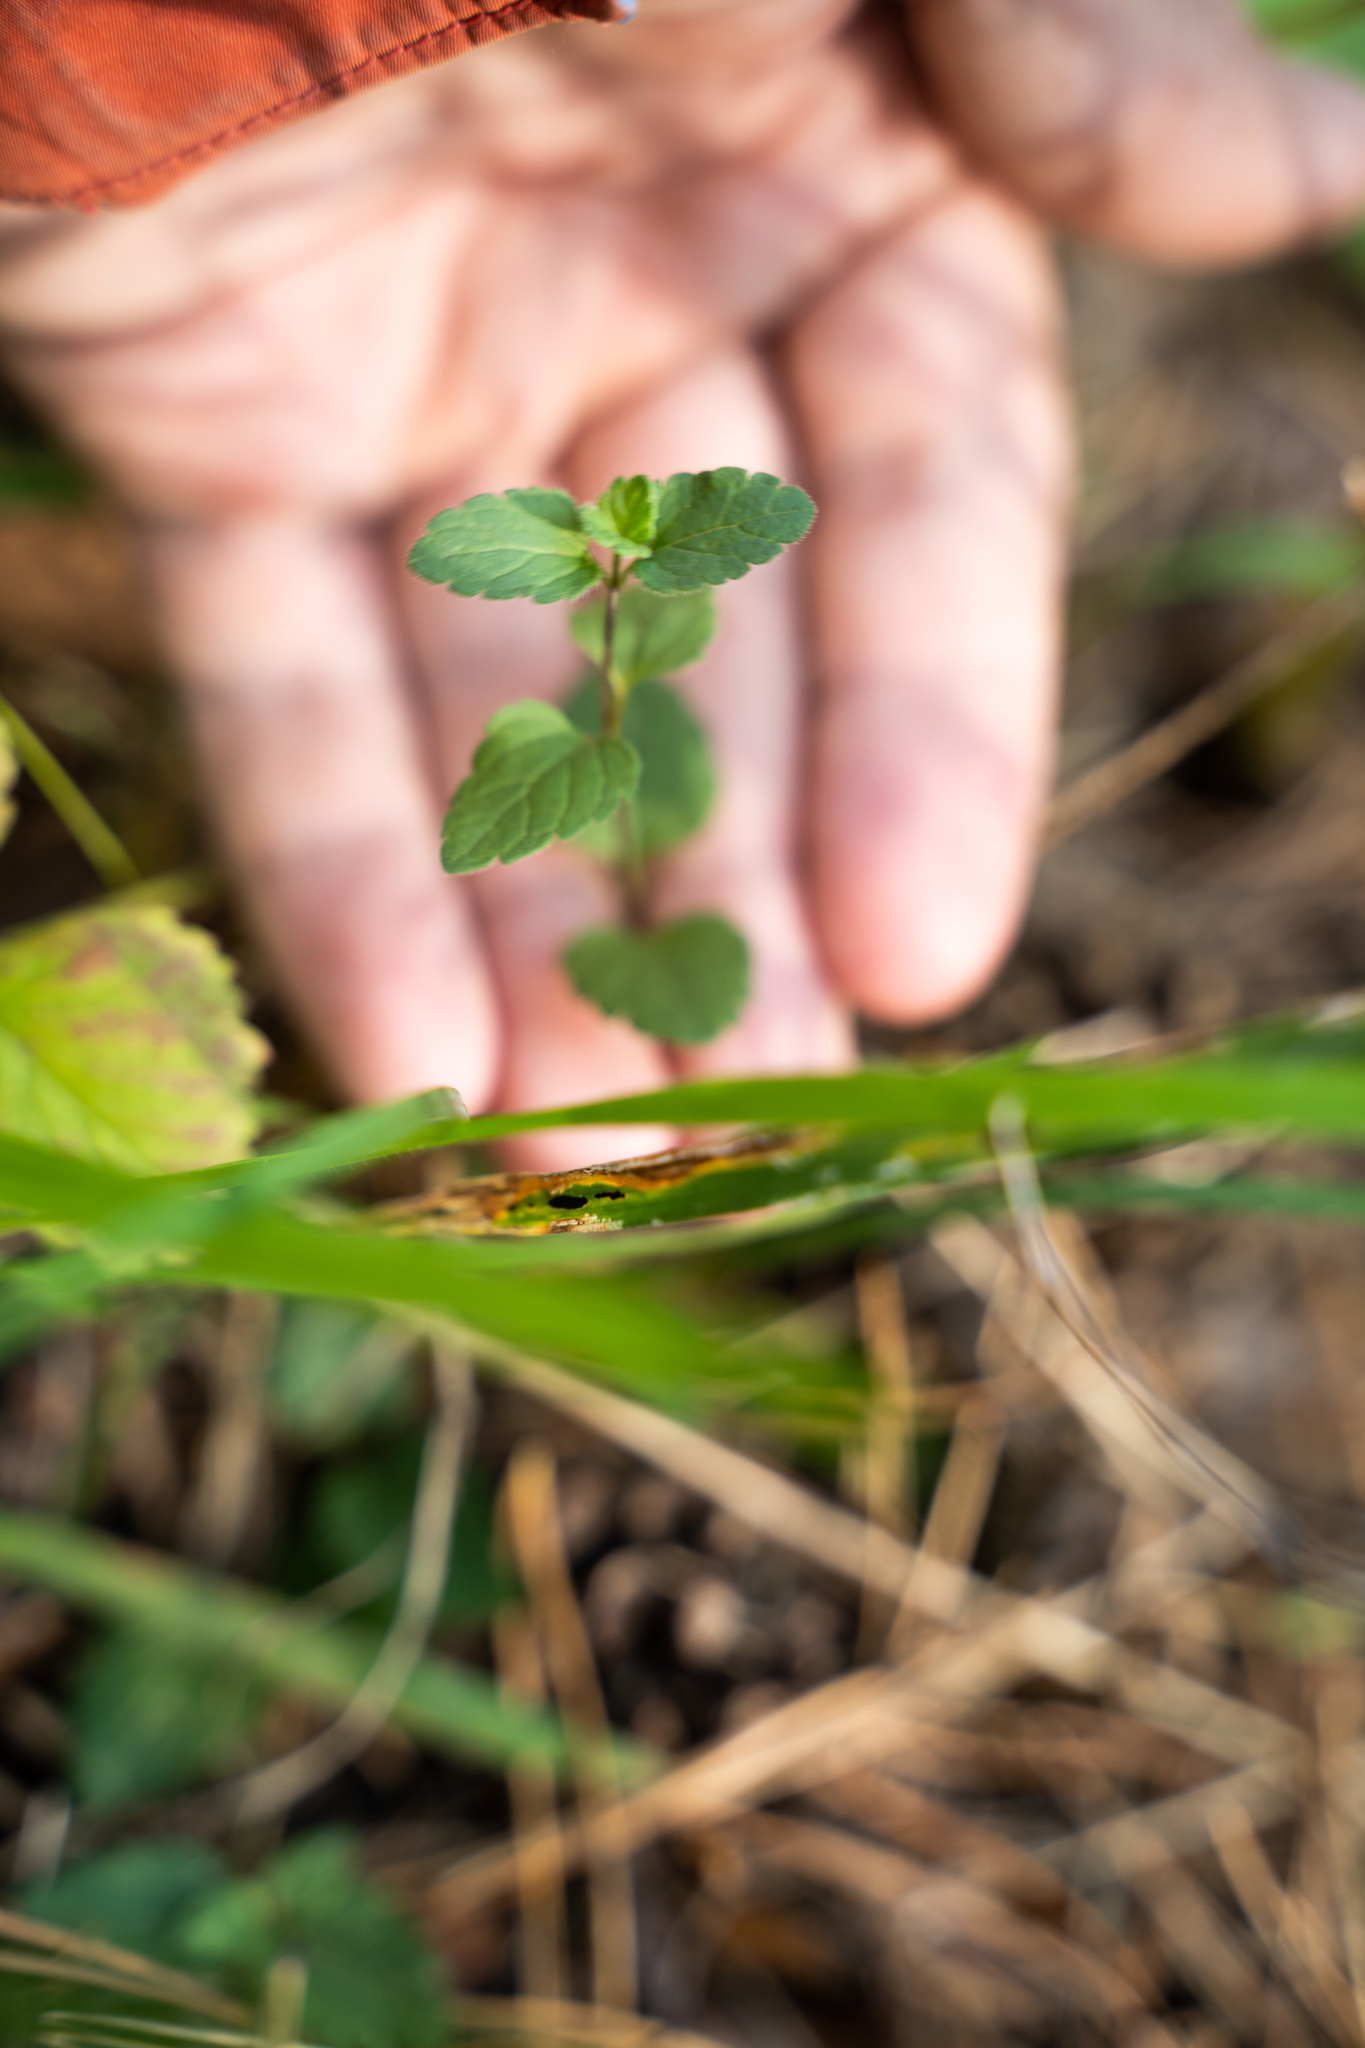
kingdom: Plantae
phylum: Tracheophyta
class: Magnoliopsida
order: Lamiales
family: Plantaginaceae
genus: Veronica
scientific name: Veronica chamaedrys
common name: Germander speedwell
